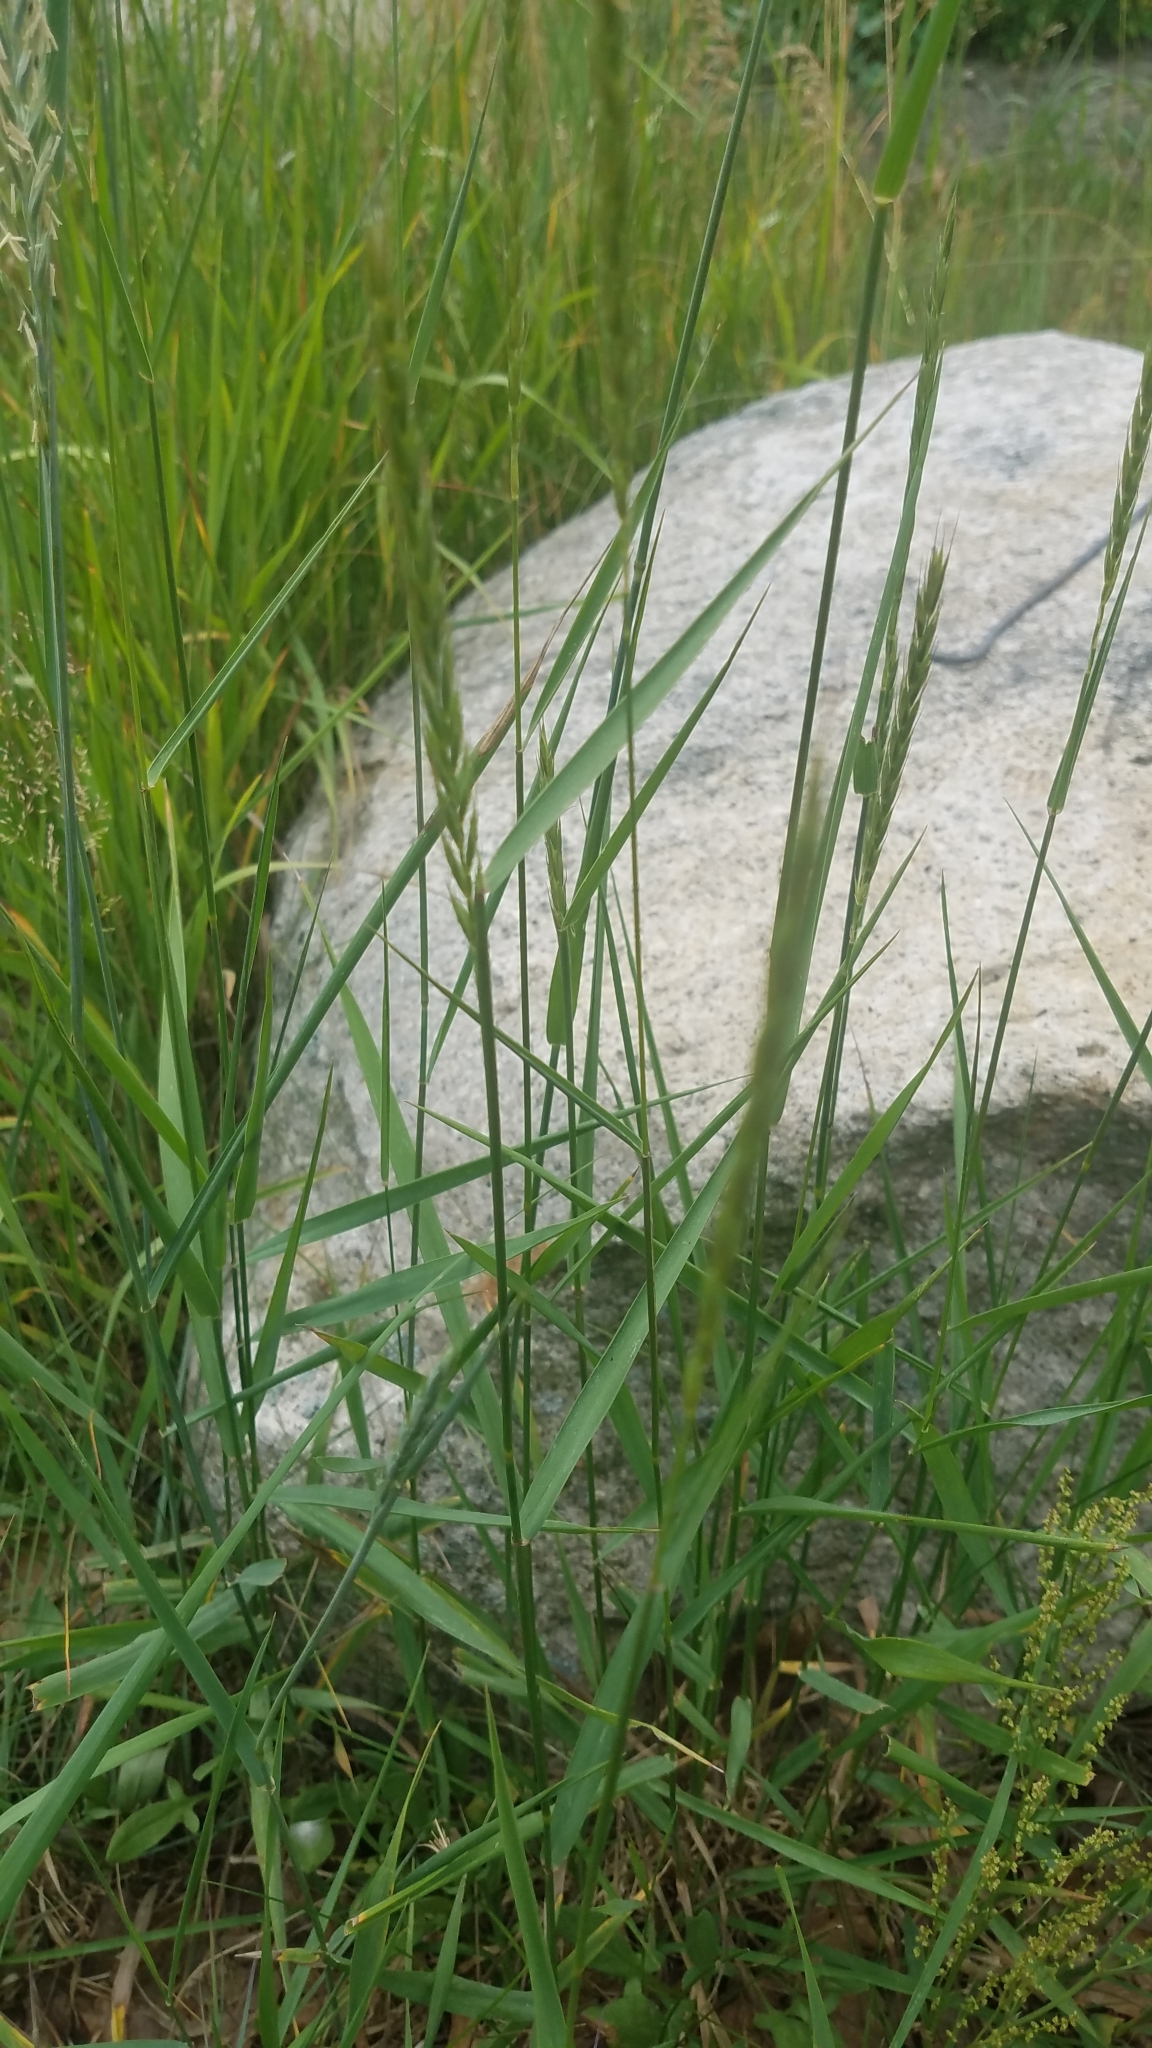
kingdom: Plantae
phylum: Tracheophyta
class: Liliopsida
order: Poales
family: Poaceae
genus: Elymus
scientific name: Elymus repens
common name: Quackgrass
